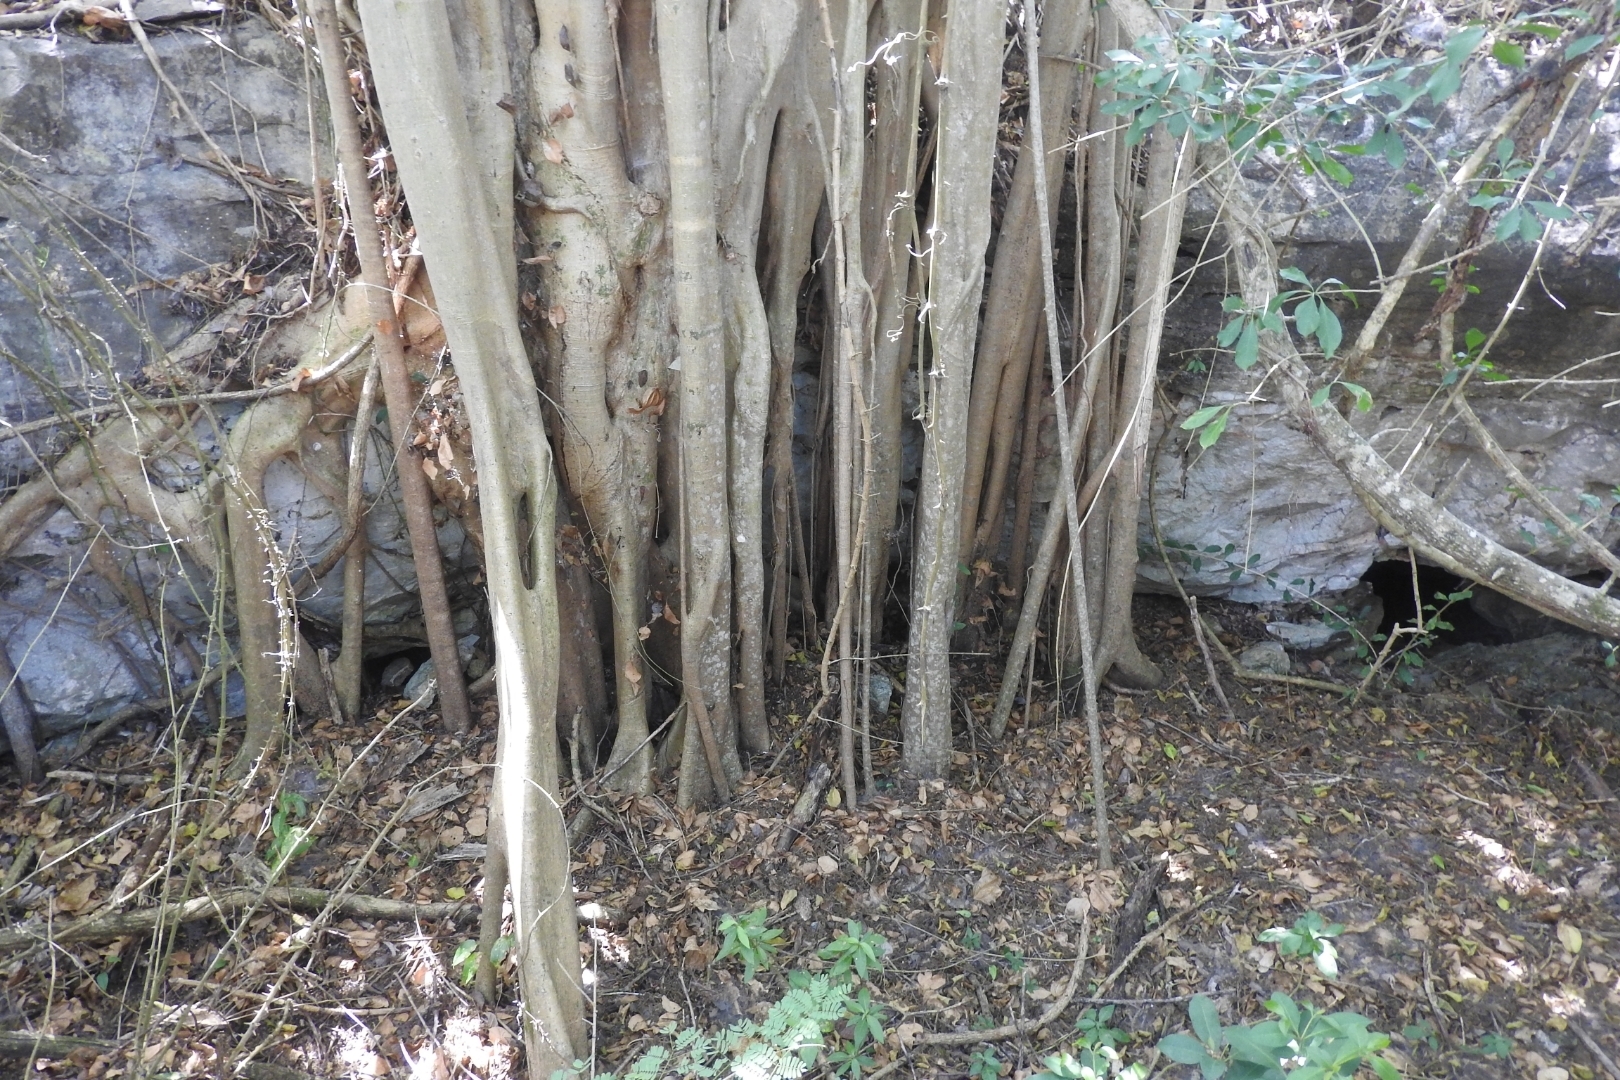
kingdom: Plantae
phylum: Tracheophyta
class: Magnoliopsida
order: Rosales
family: Moraceae
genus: Ficus
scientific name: Ficus cotinifolia
